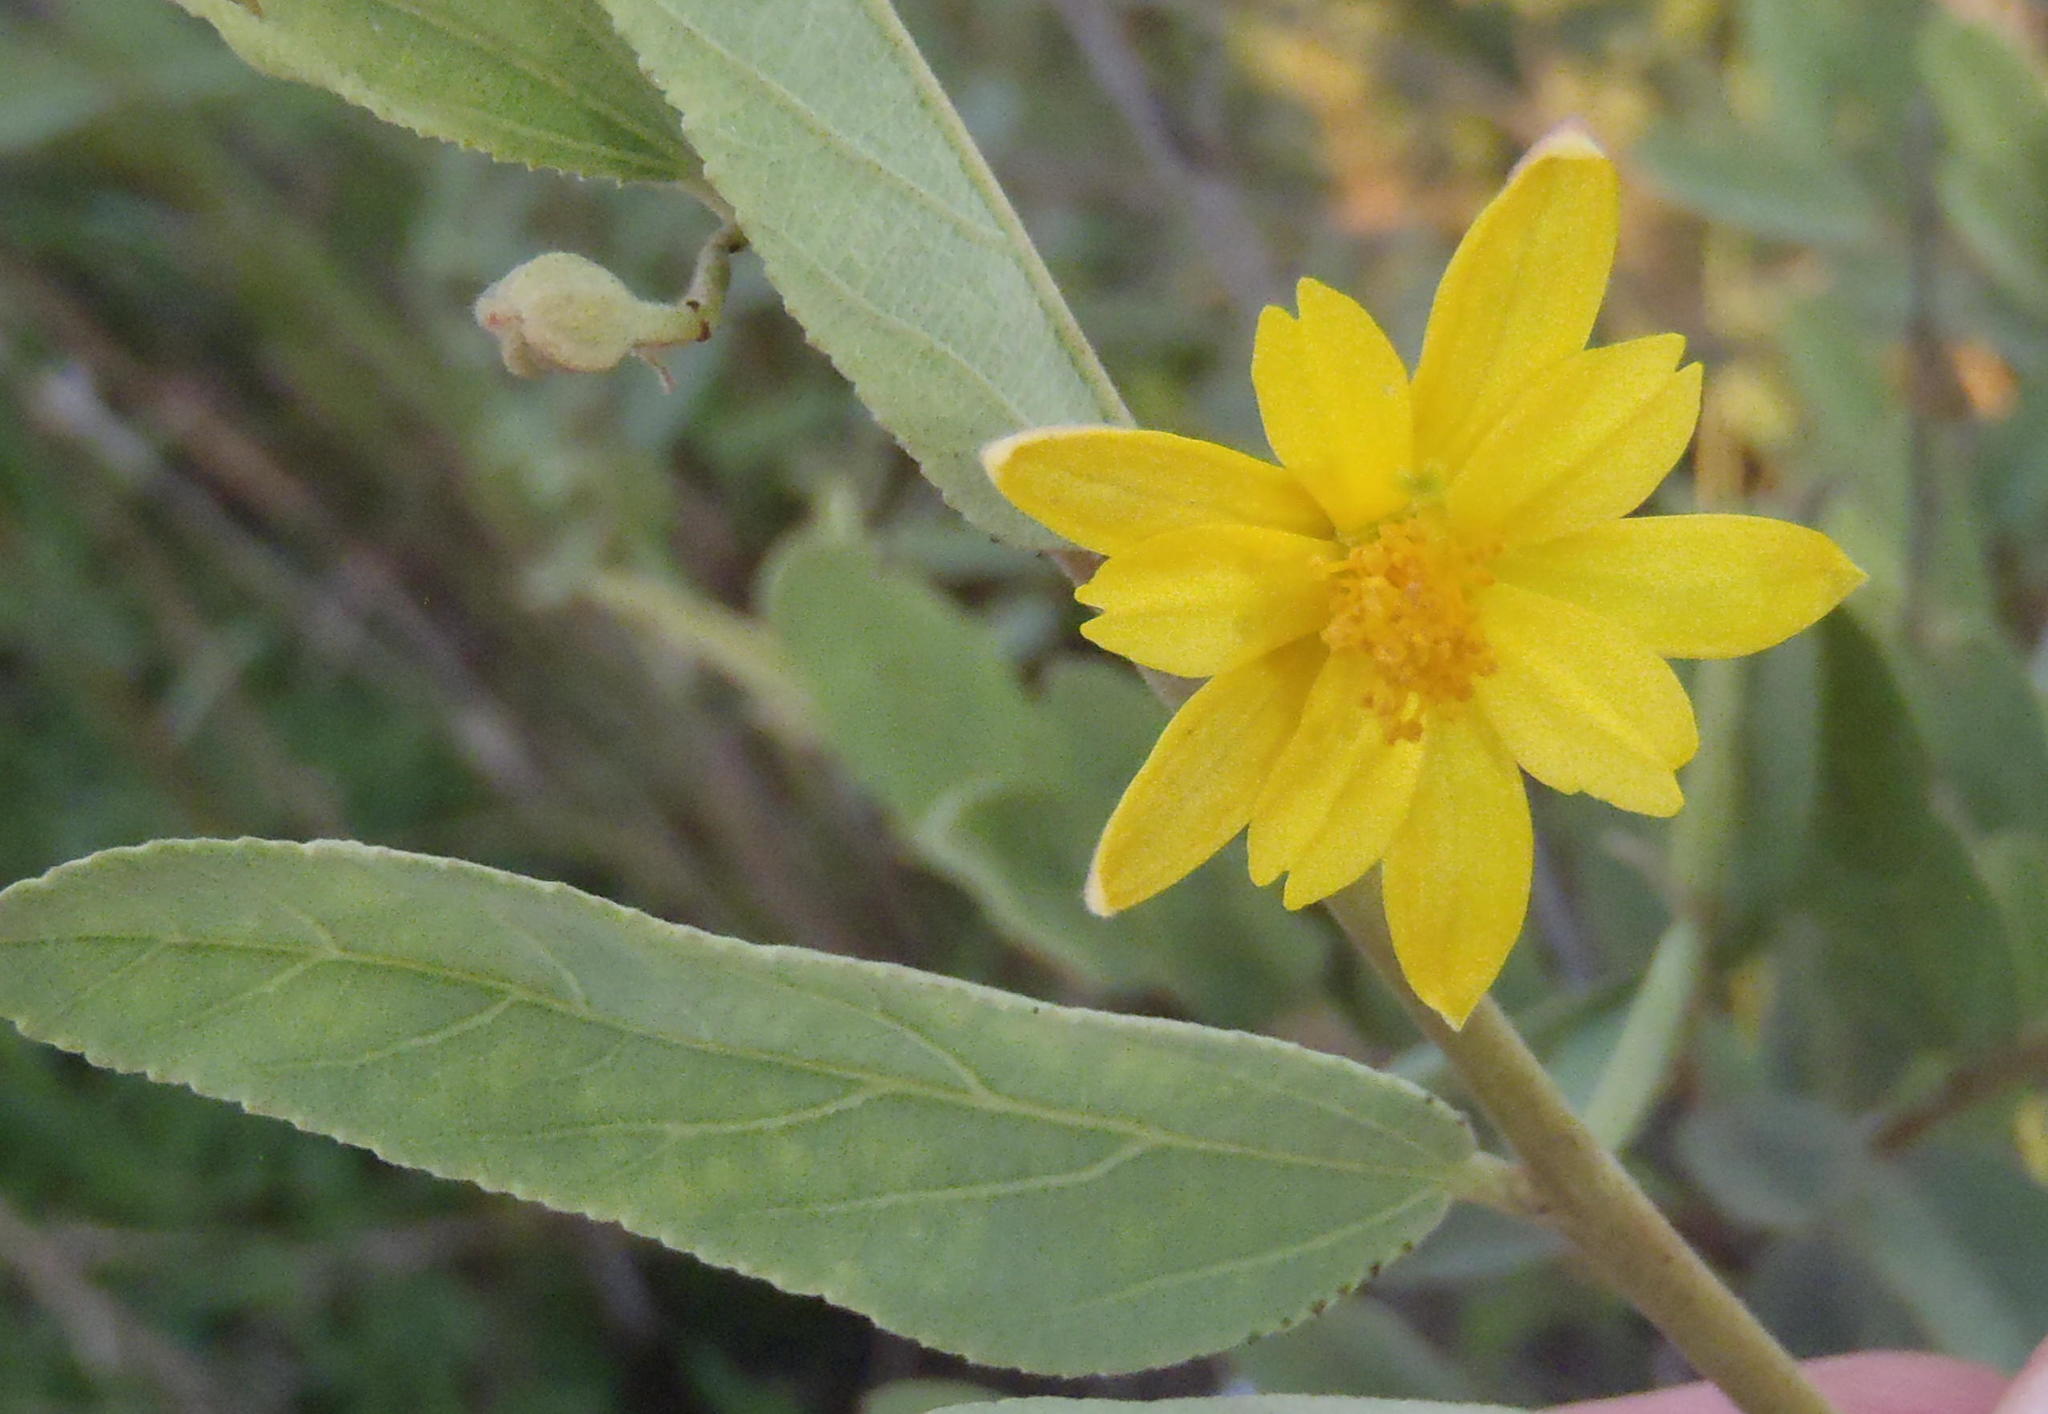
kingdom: Plantae
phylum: Tracheophyta
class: Magnoliopsida
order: Malvales
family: Malvaceae
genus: Grewia
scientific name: Grewia flava
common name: Brandy bush
